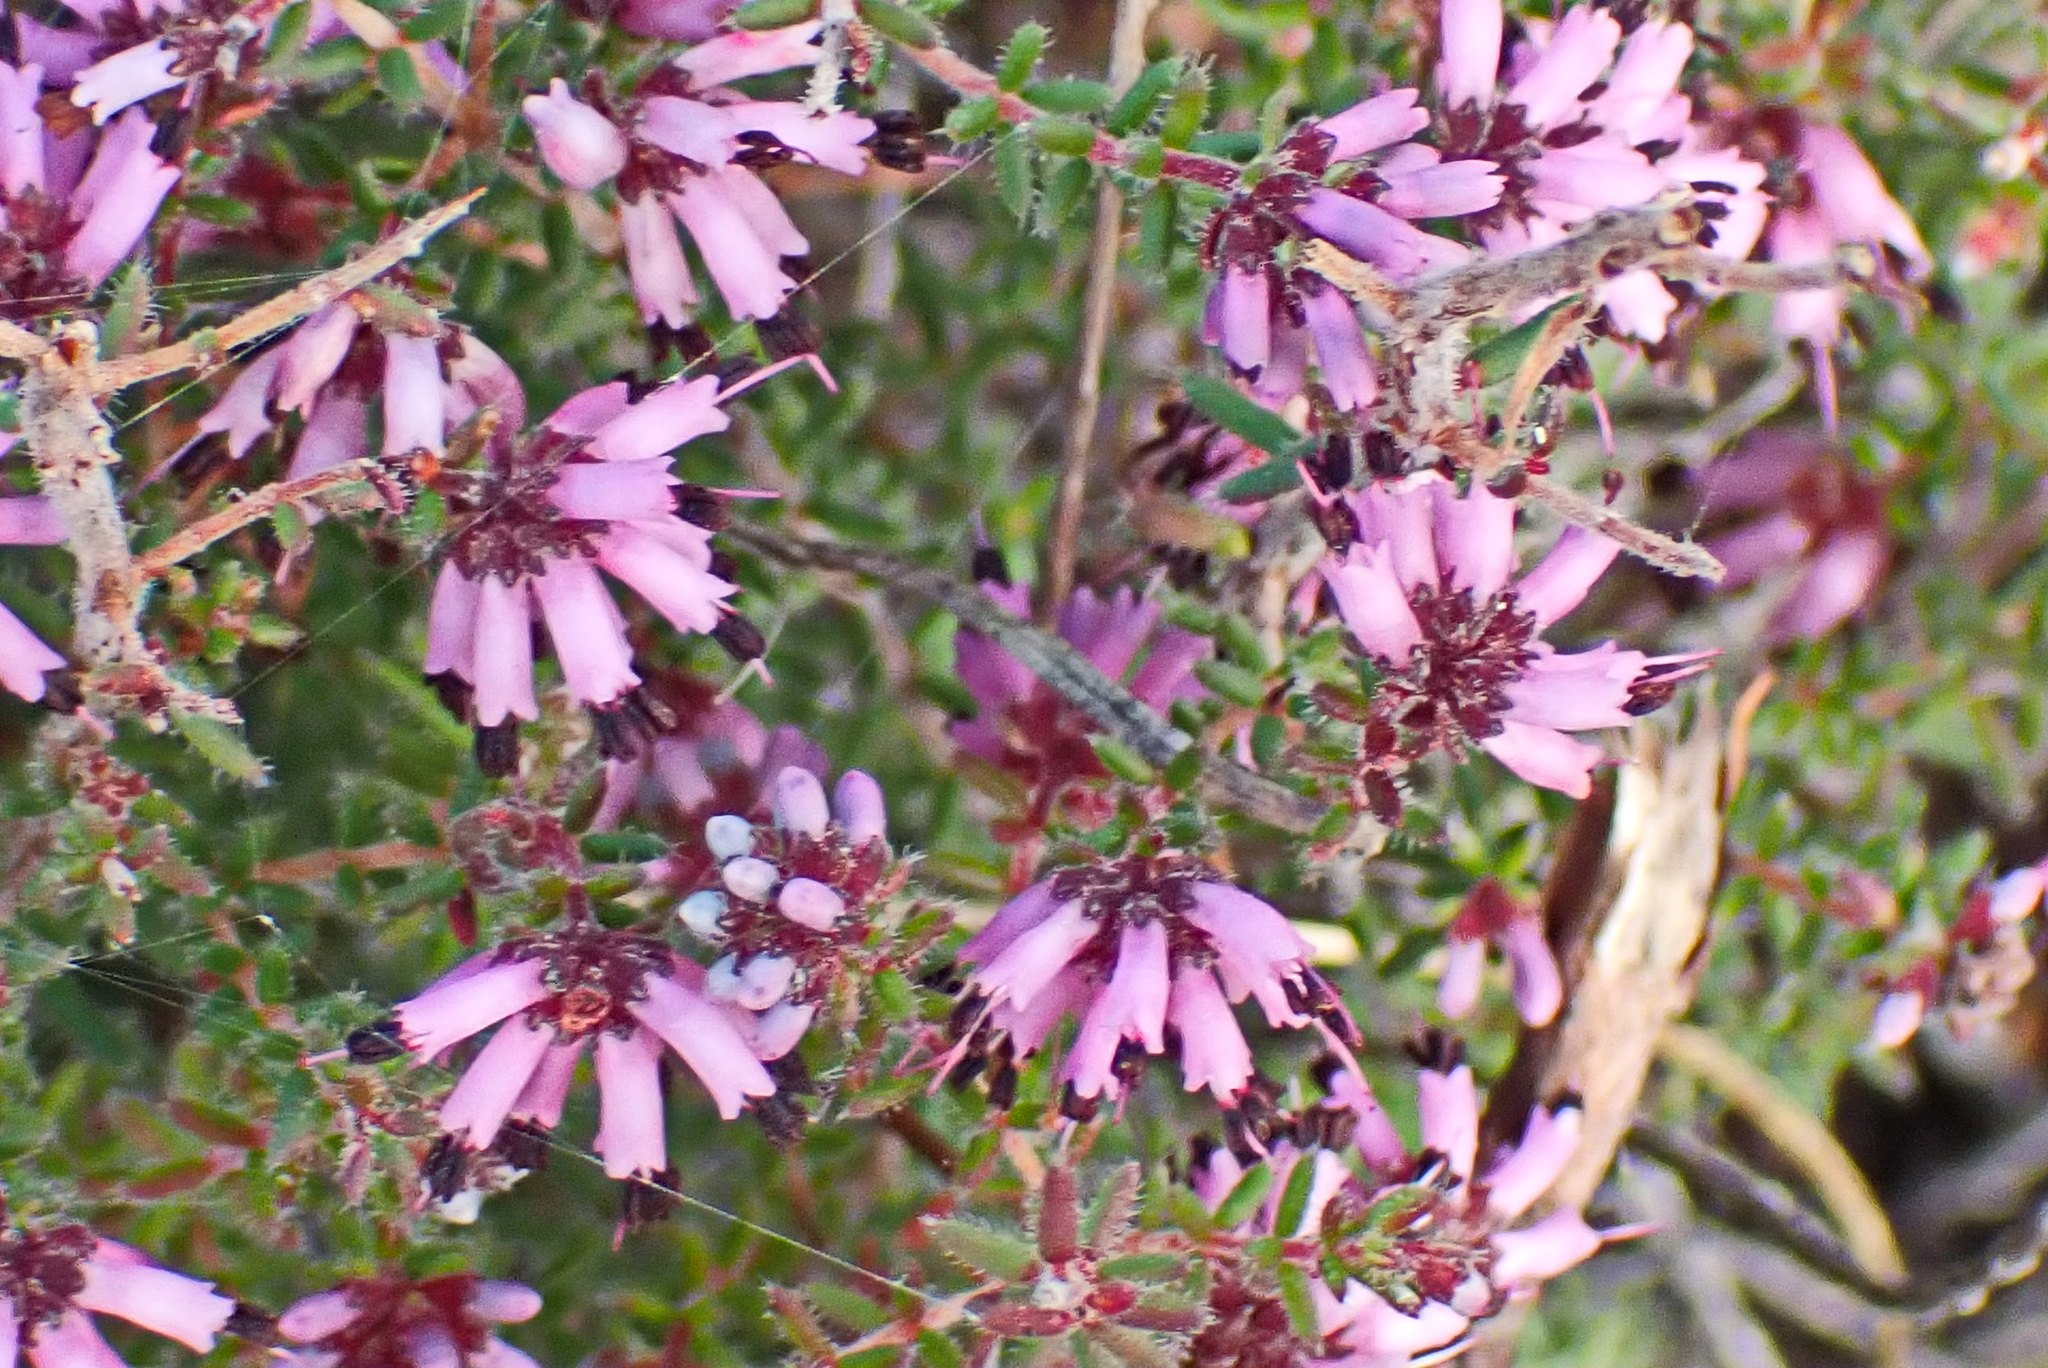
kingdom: Plantae
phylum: Tracheophyta
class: Magnoliopsida
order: Ericales
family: Ericaceae
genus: Erica
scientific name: Erica radicans
